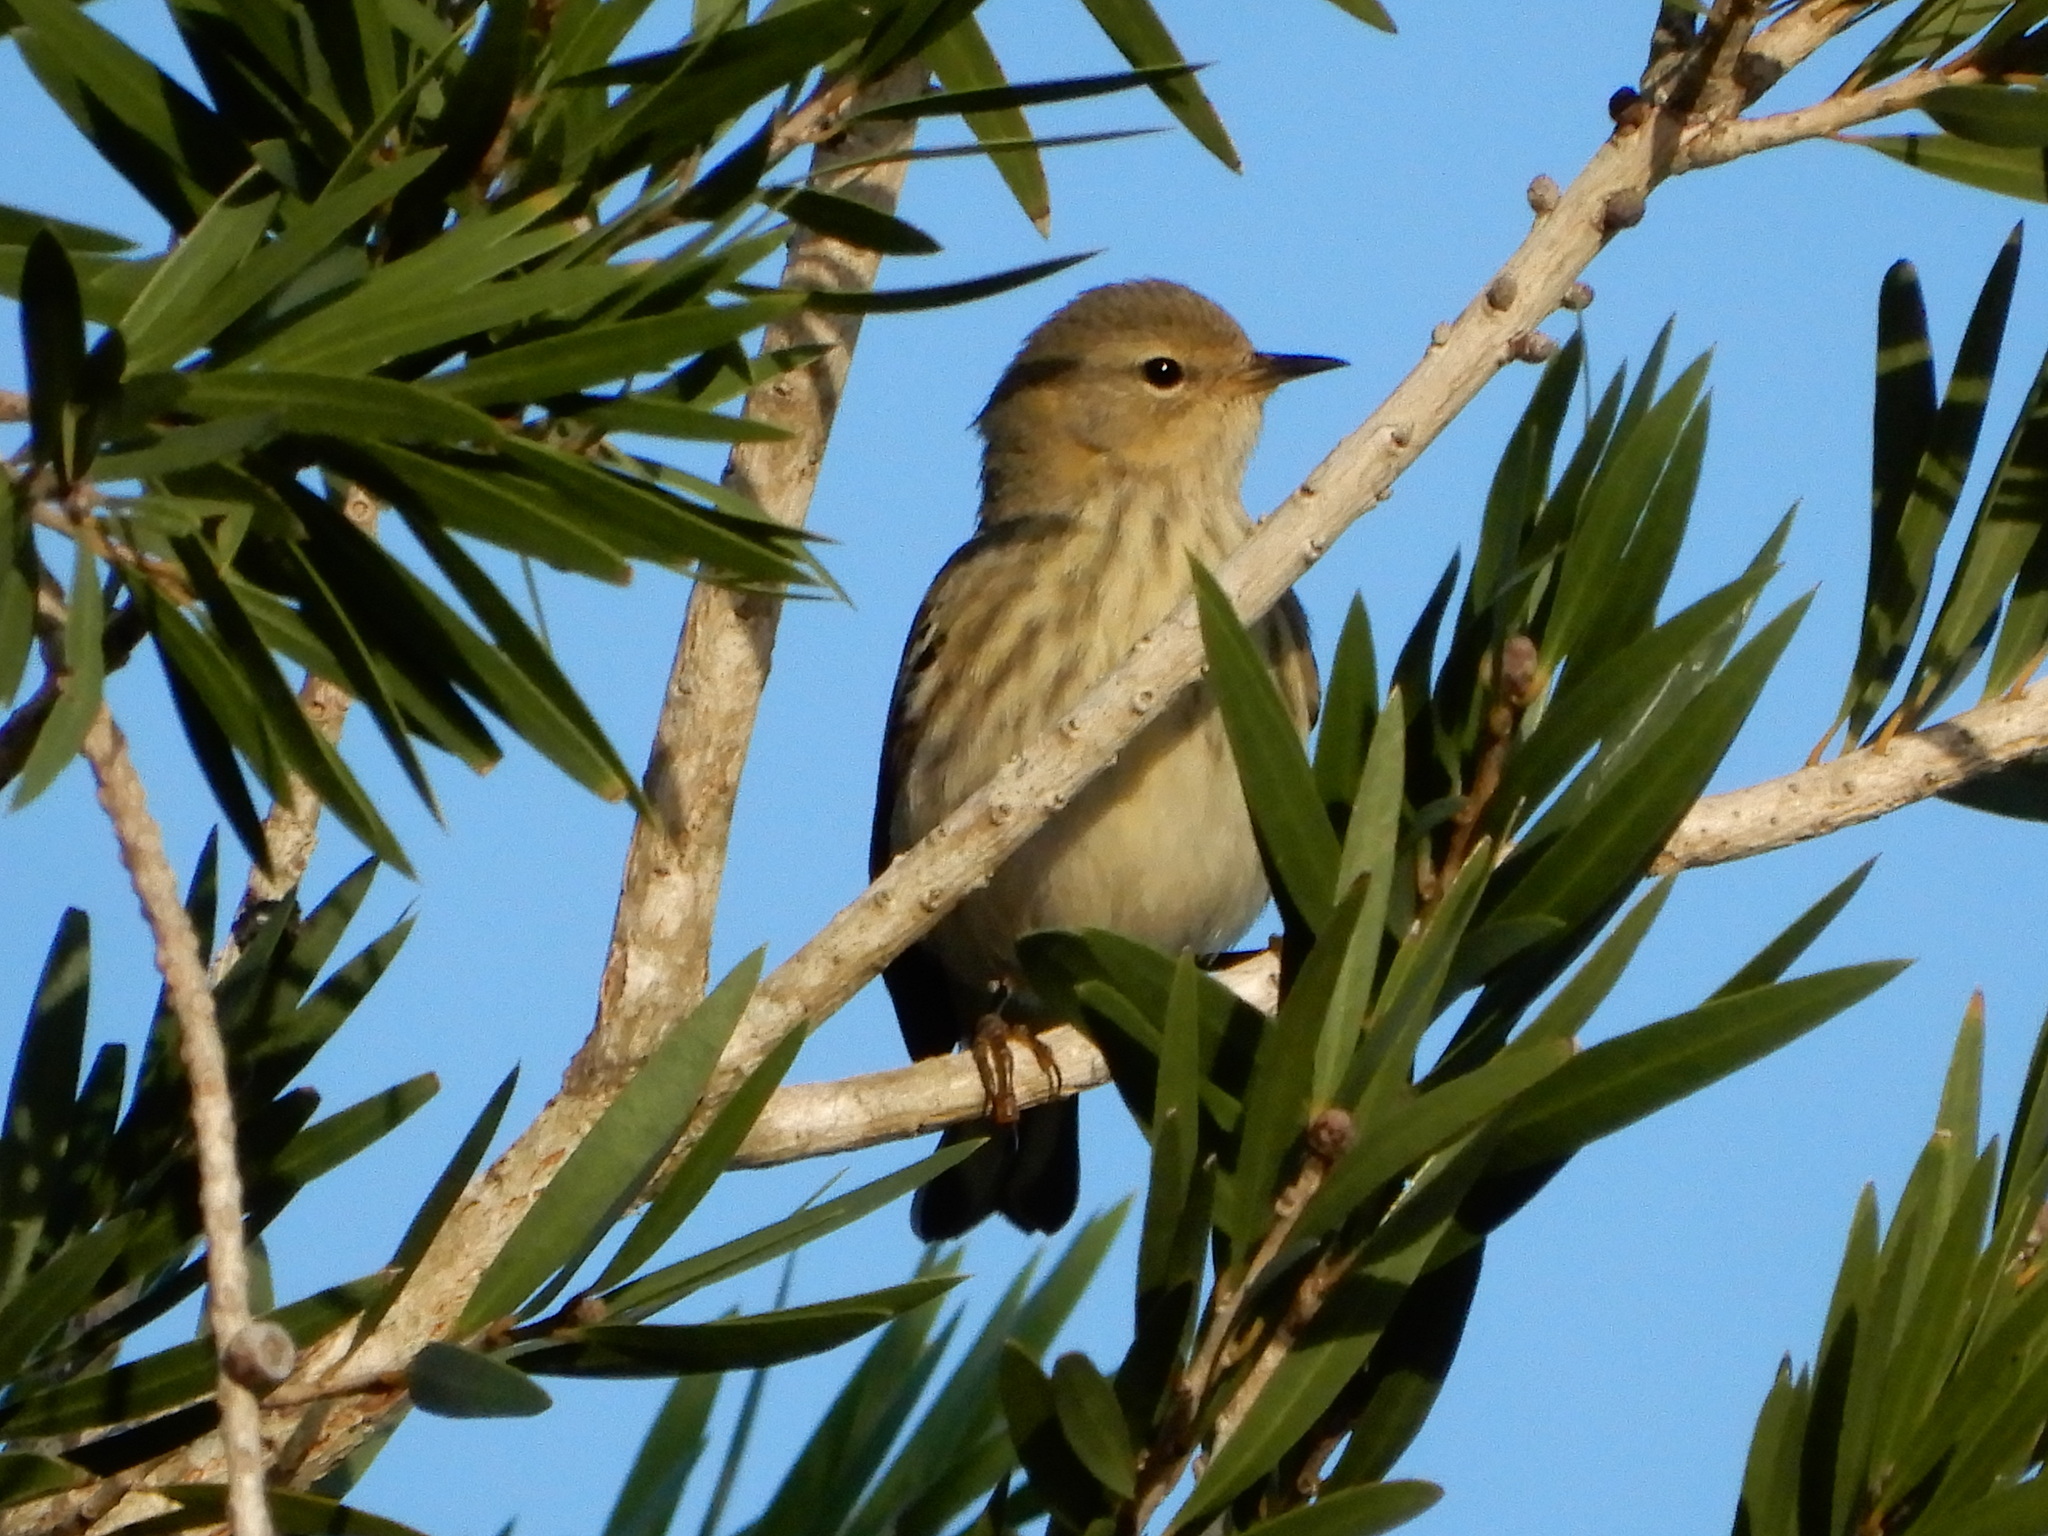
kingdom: Animalia
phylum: Chordata
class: Aves
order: Passeriformes
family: Parulidae
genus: Setophaga
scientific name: Setophaga tigrina
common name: Cape may warbler
